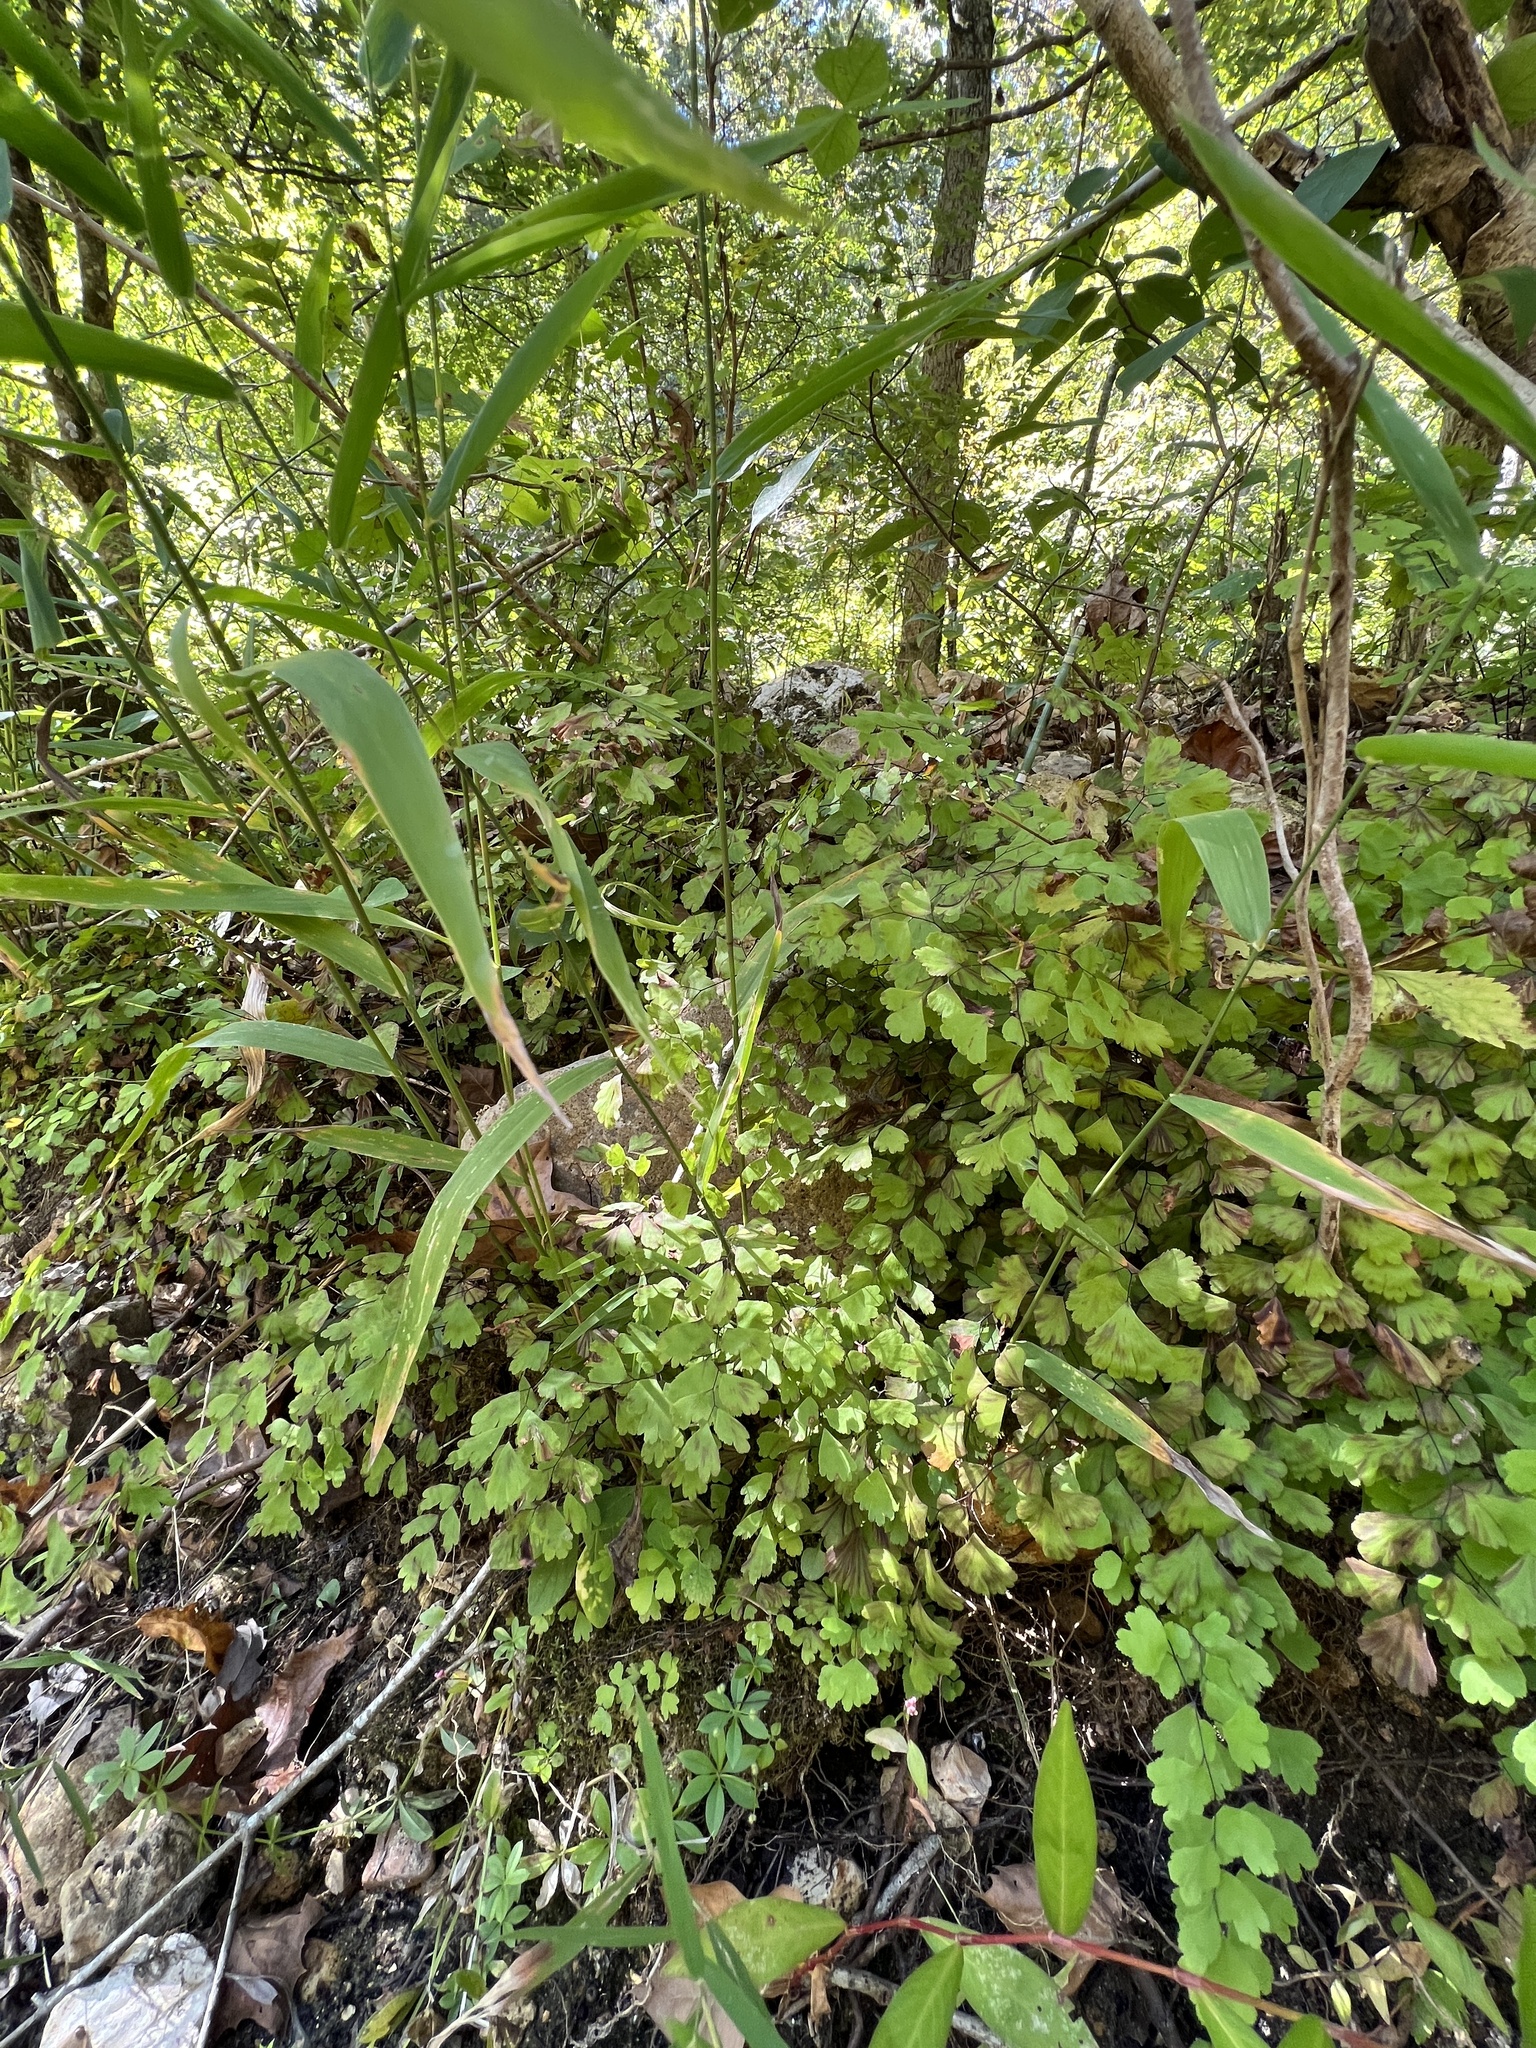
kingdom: Plantae
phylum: Tracheophyta
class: Polypodiopsida
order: Polypodiales
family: Pteridaceae
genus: Adiantum
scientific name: Adiantum capillus-veneris
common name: Maidenhair fern
